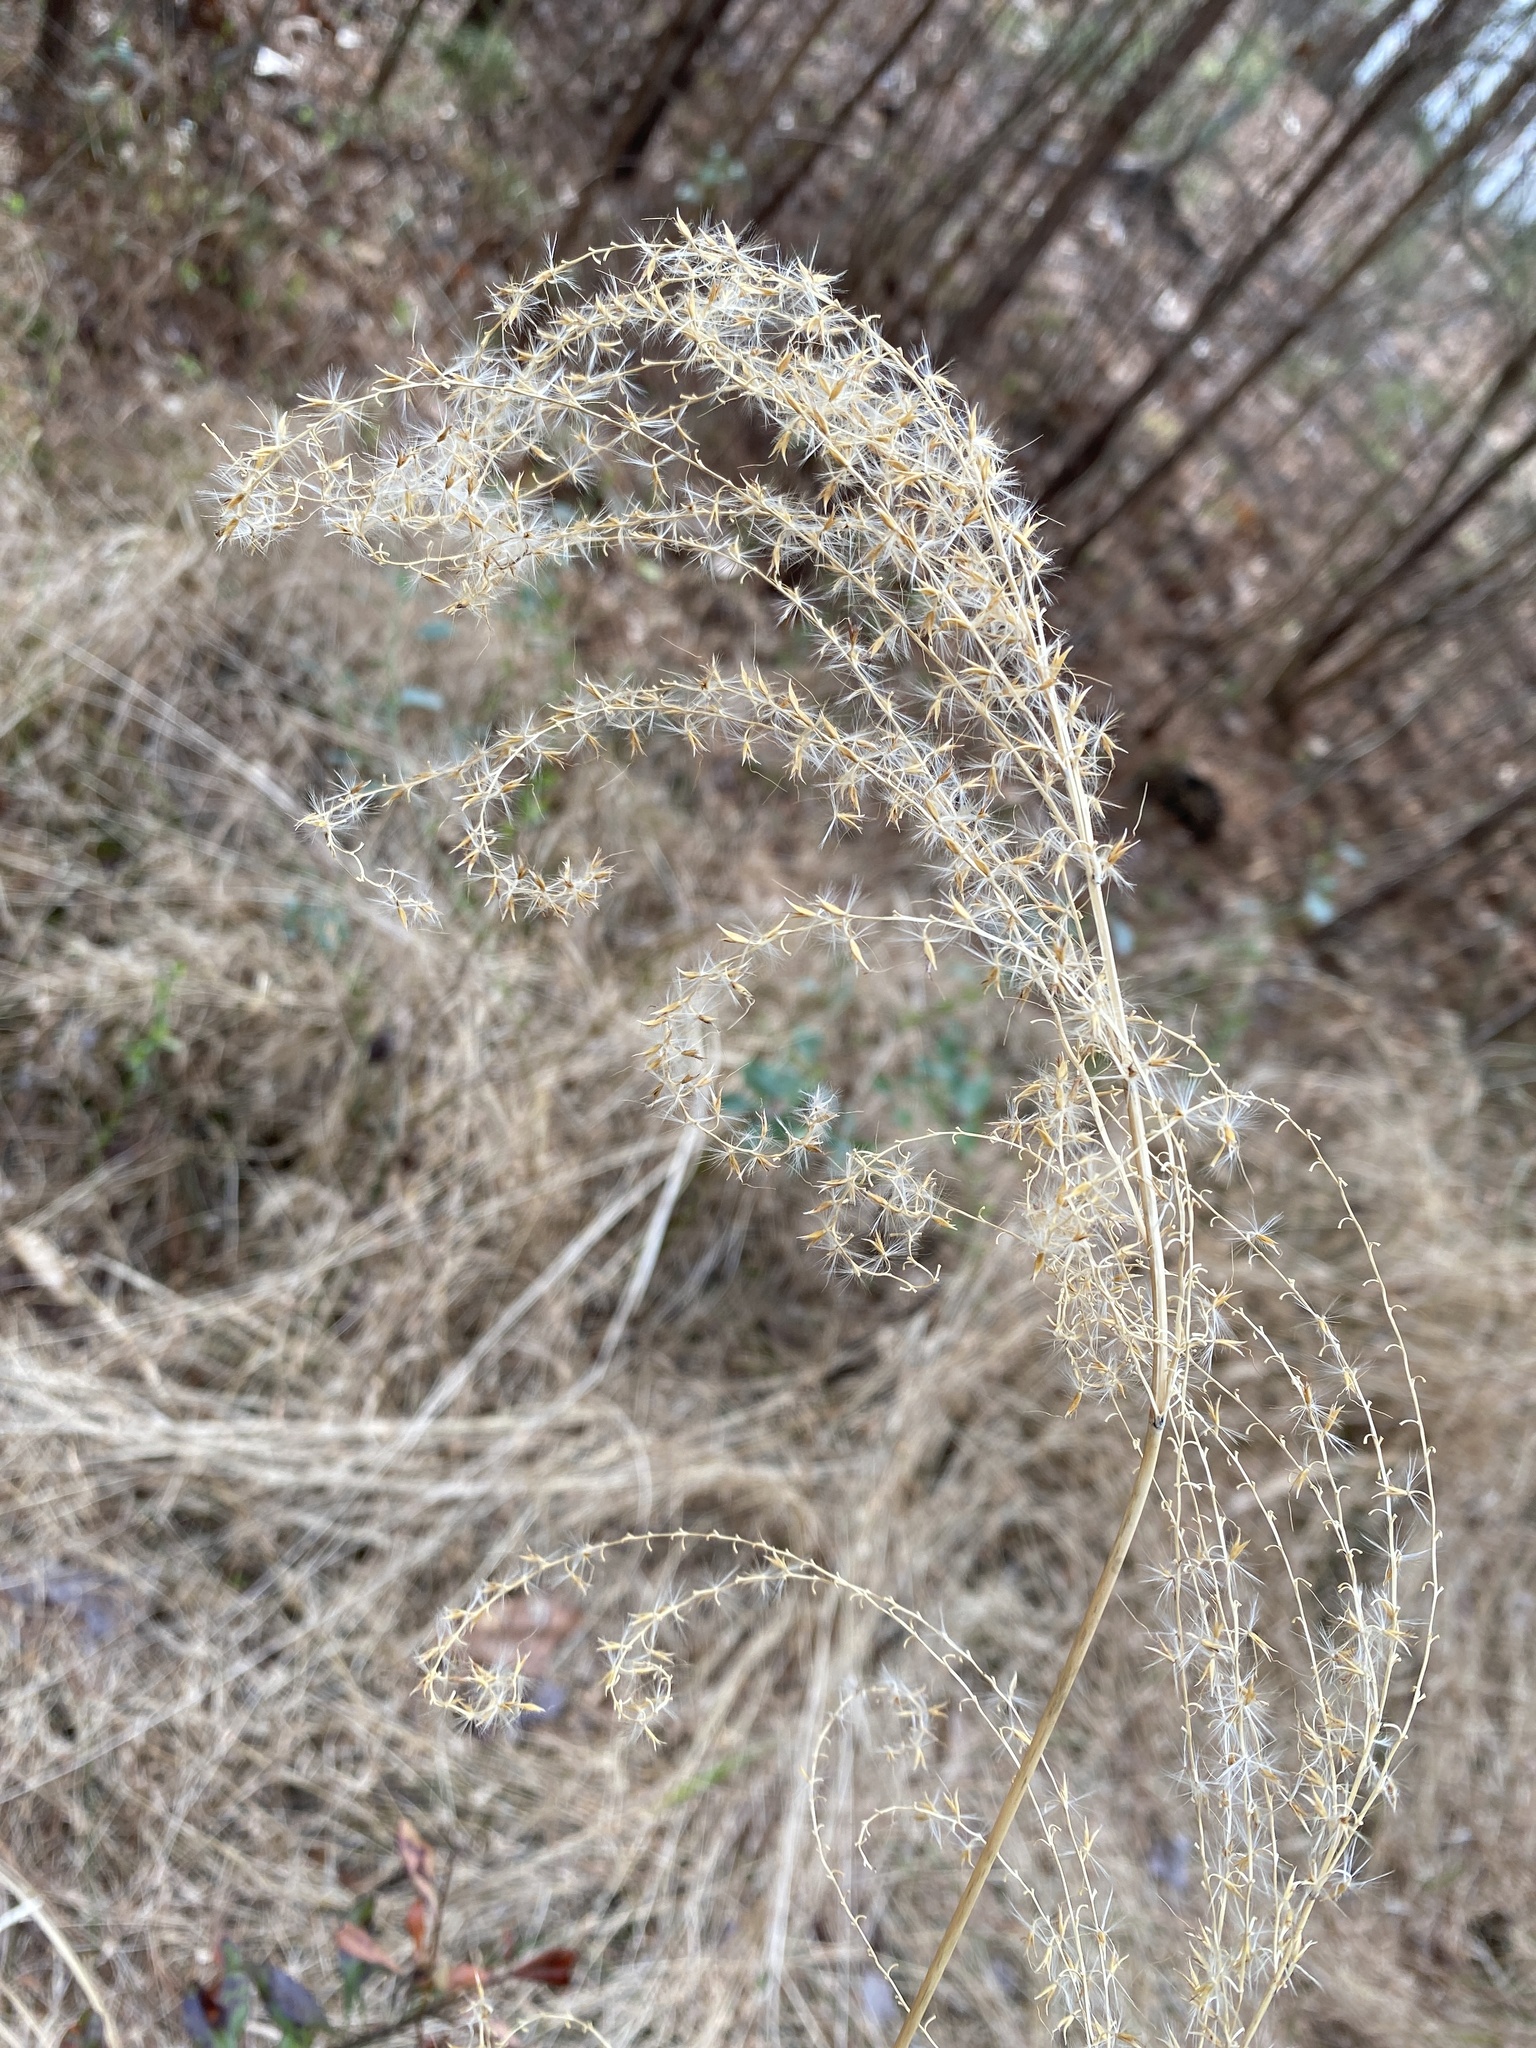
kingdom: Plantae
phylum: Tracheophyta
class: Liliopsida
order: Poales
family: Poaceae
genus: Miscanthus
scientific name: Miscanthus sinensis
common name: Chinese silvergrass
